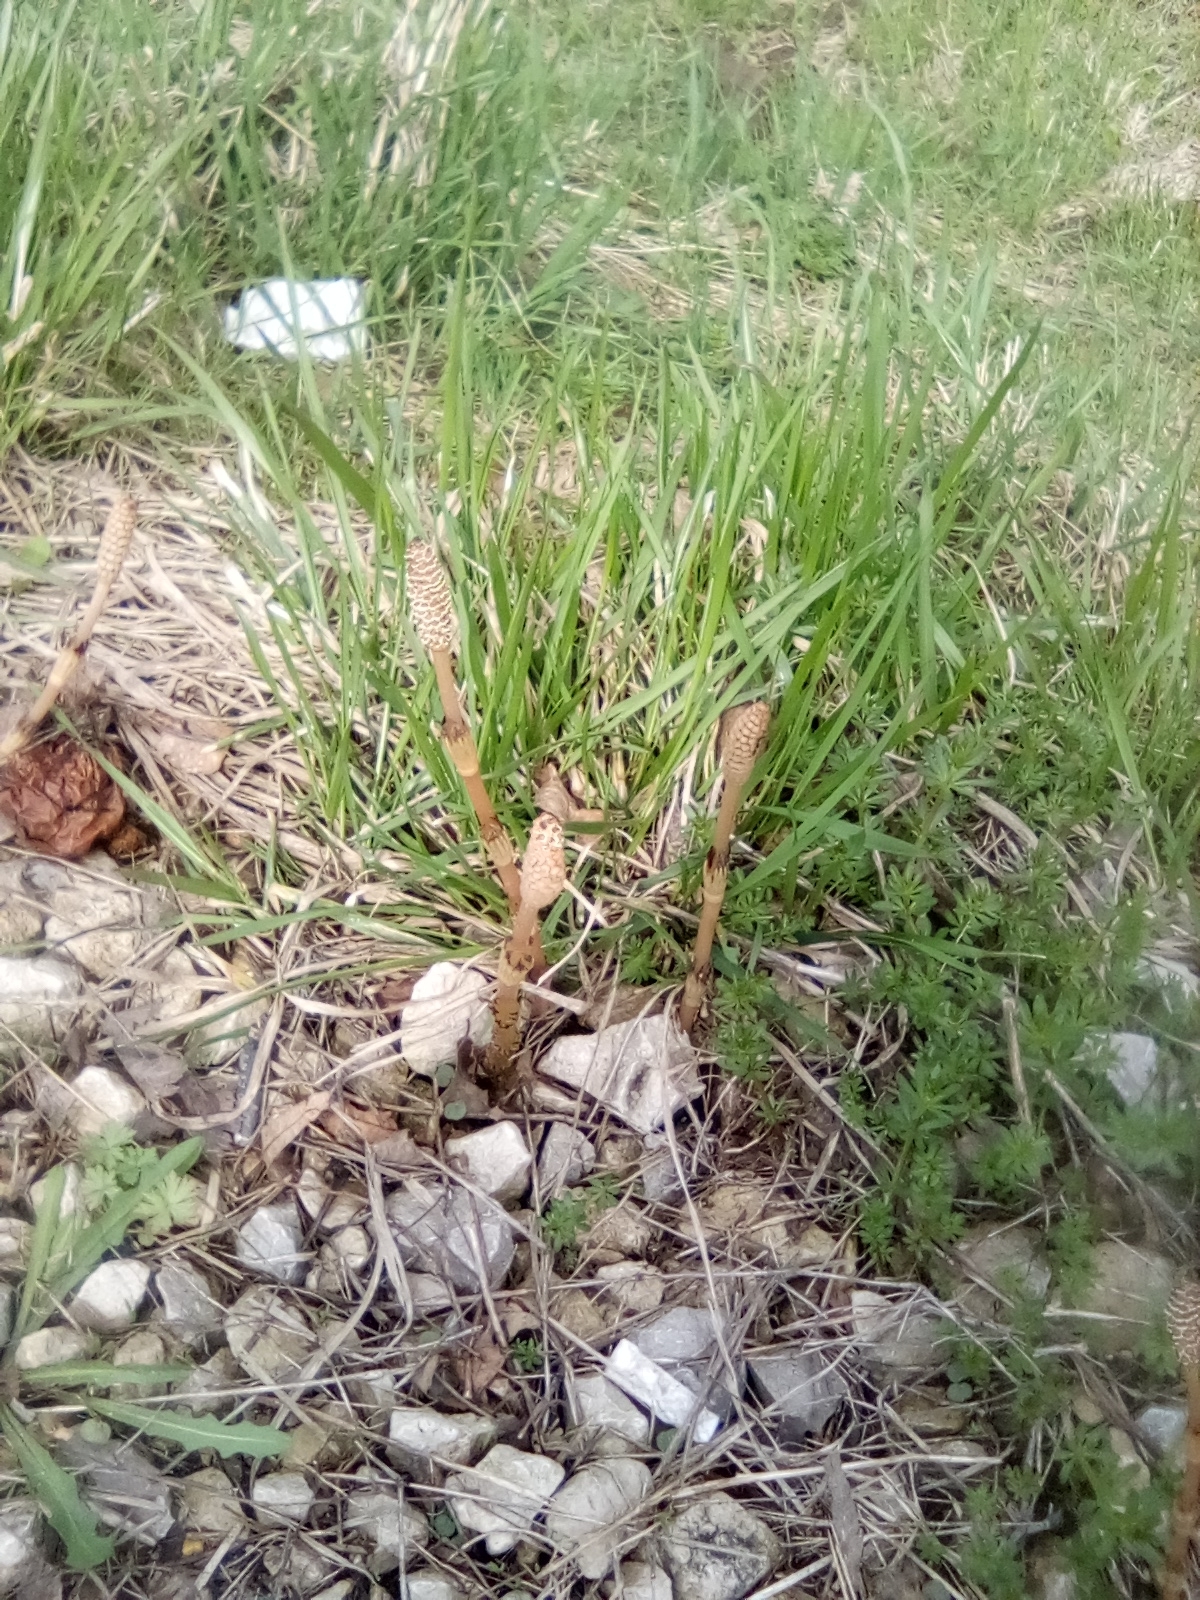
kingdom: Plantae
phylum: Tracheophyta
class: Polypodiopsida
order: Equisetales
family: Equisetaceae
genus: Equisetum
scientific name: Equisetum arvense
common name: Field horsetail
